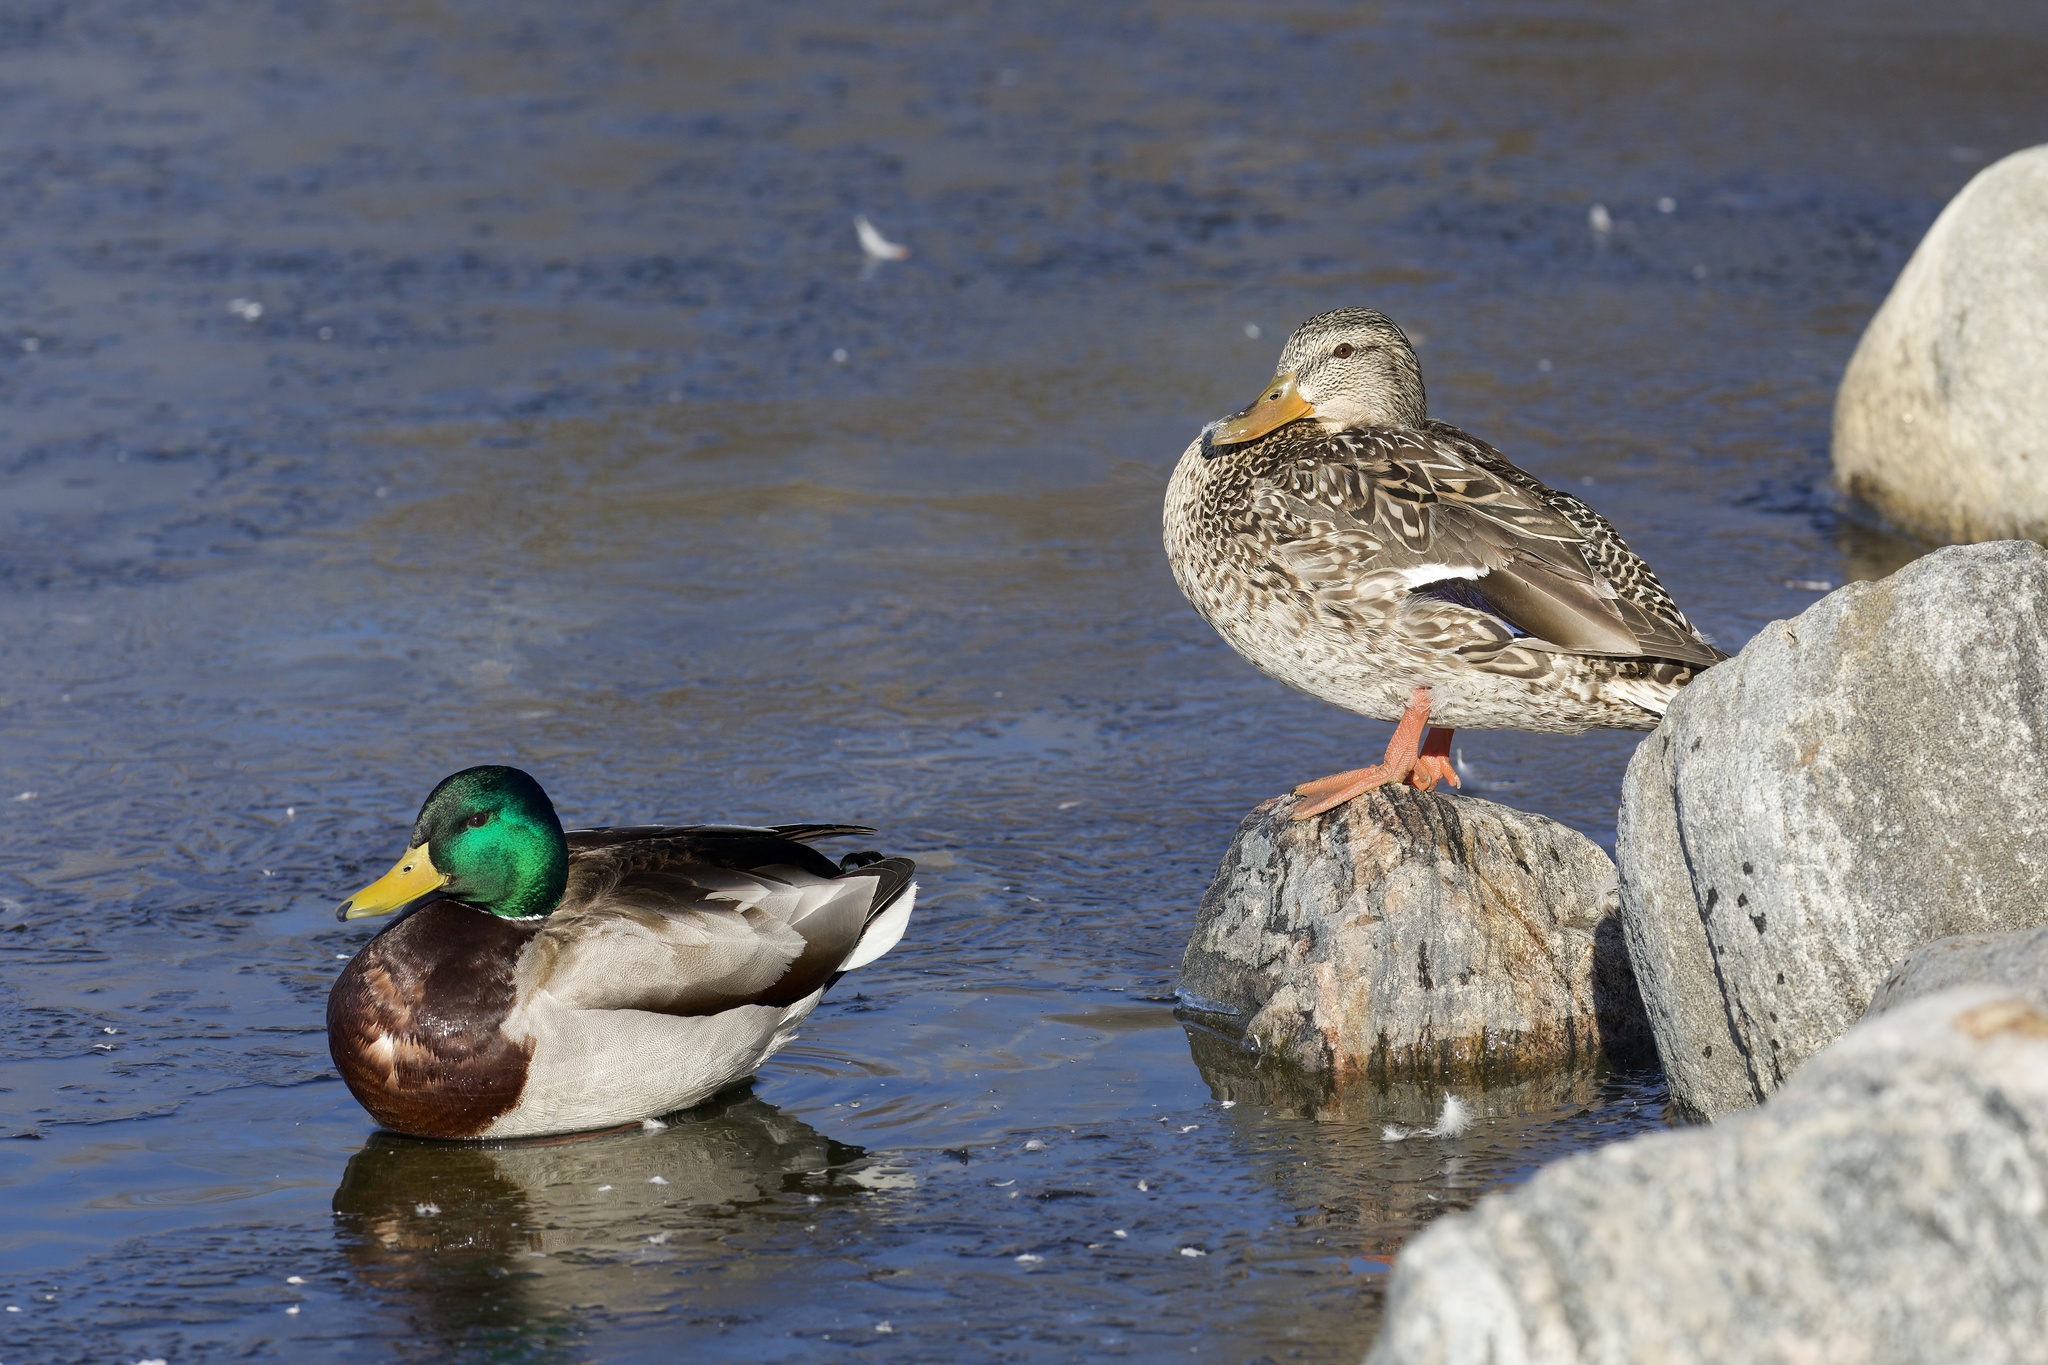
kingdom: Animalia
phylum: Chordata
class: Aves
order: Anseriformes
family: Anatidae
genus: Anas
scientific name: Anas platyrhynchos
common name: Mallard
